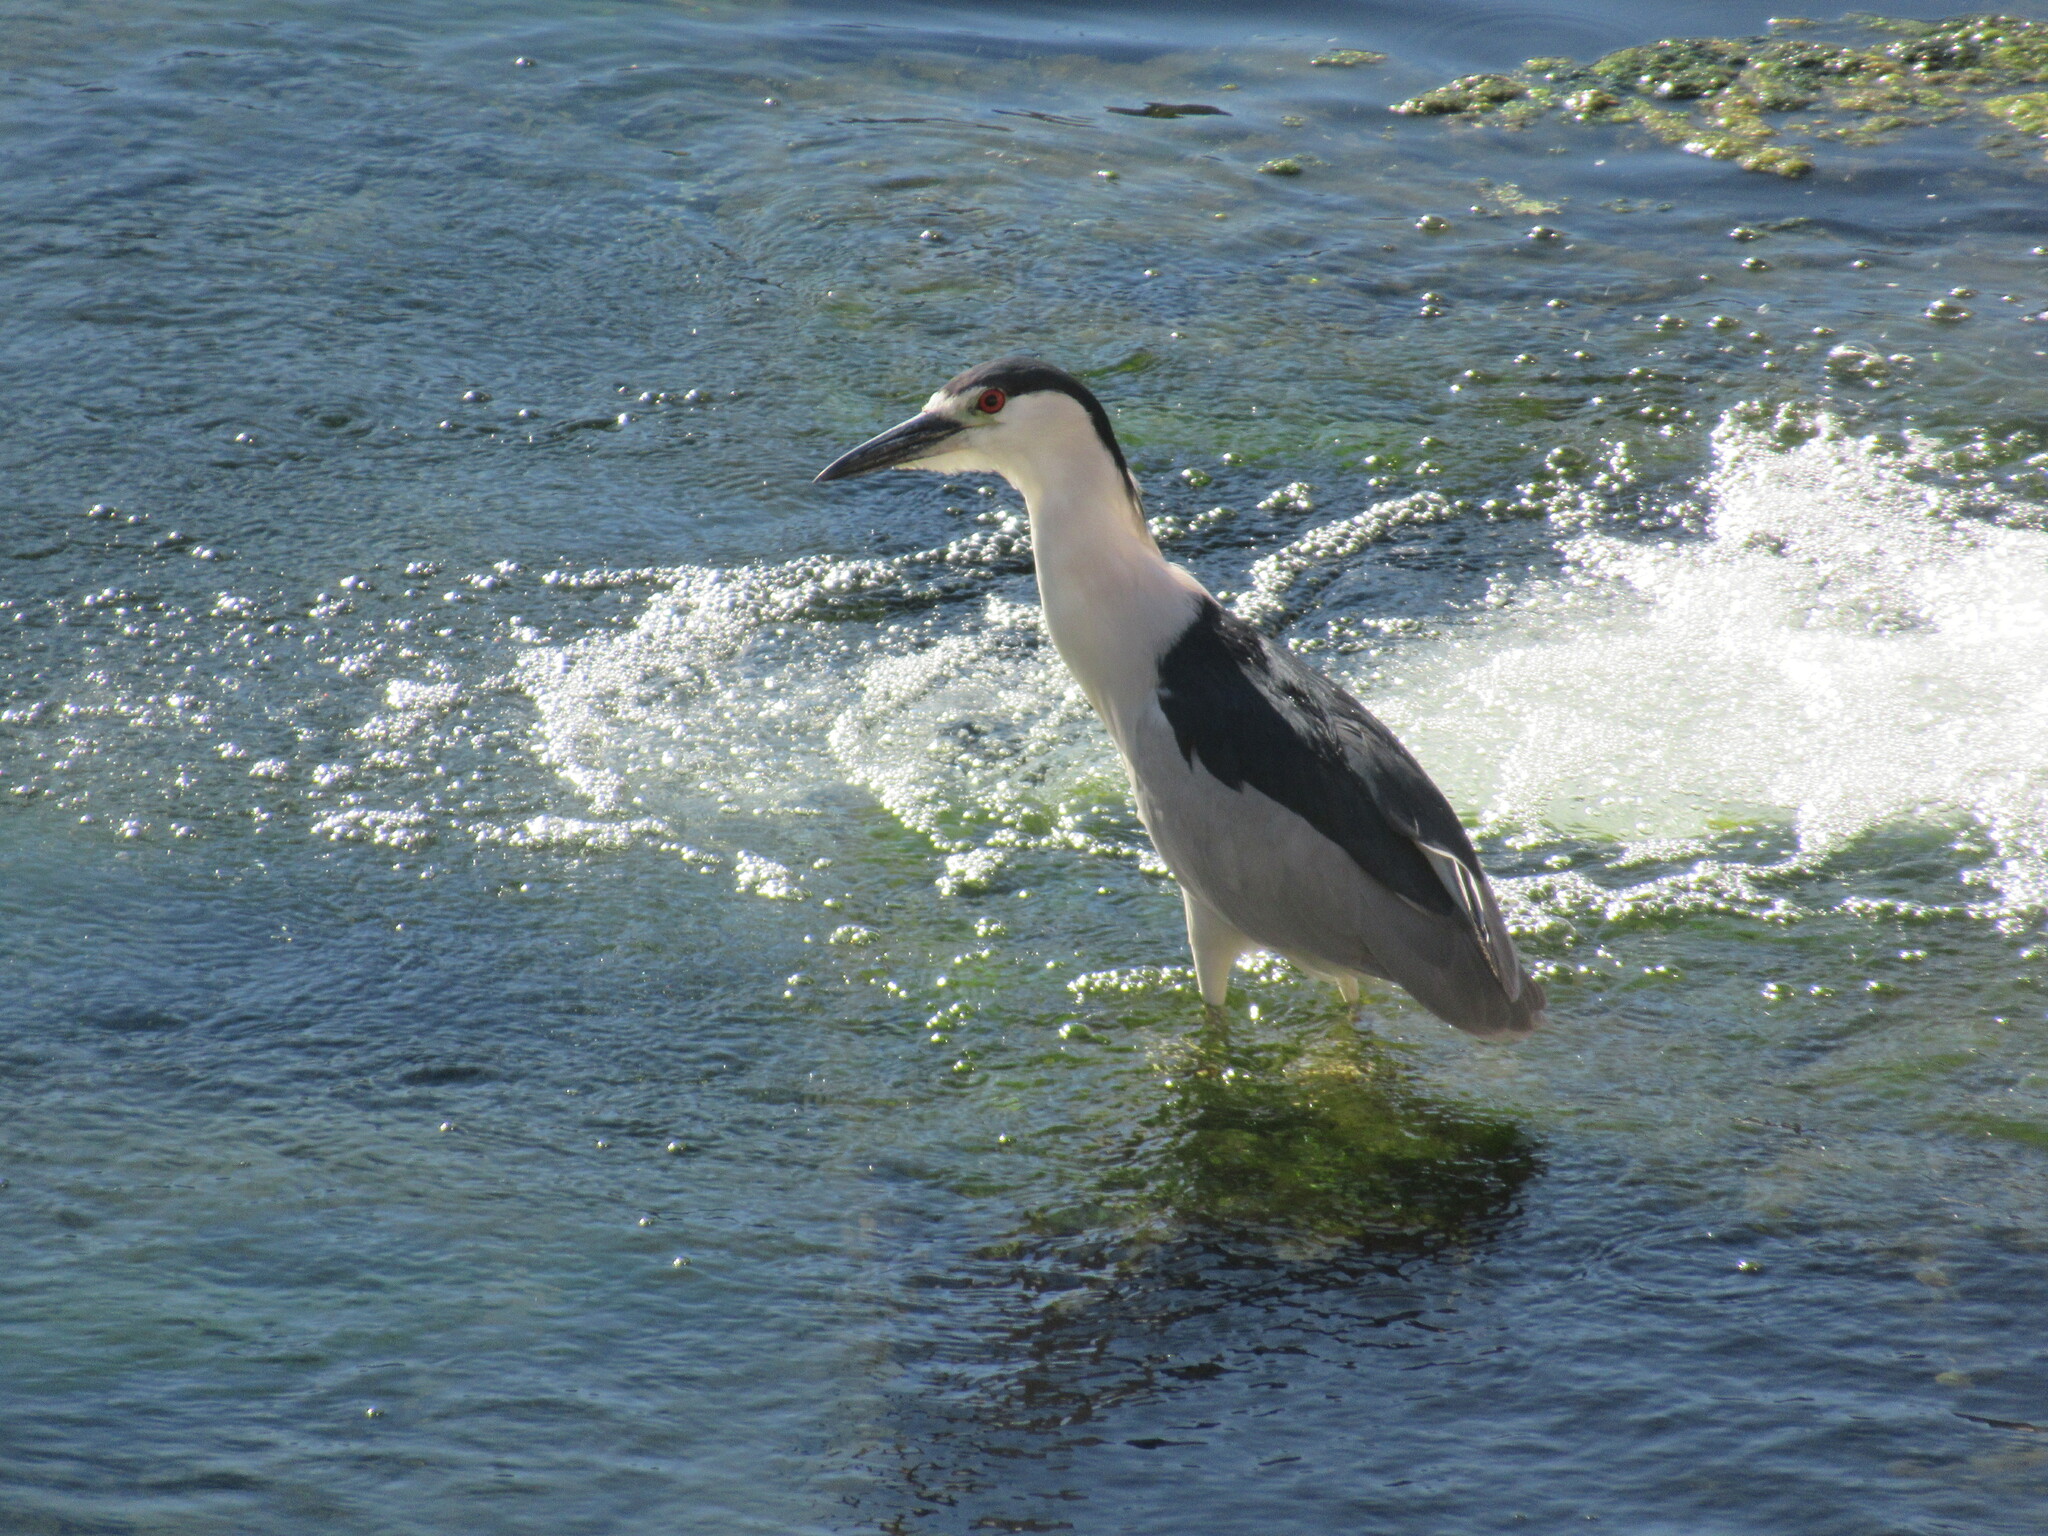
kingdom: Animalia
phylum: Chordata
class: Aves
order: Pelecaniformes
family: Ardeidae
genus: Nycticorax
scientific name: Nycticorax nycticorax
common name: Black-crowned night heron
